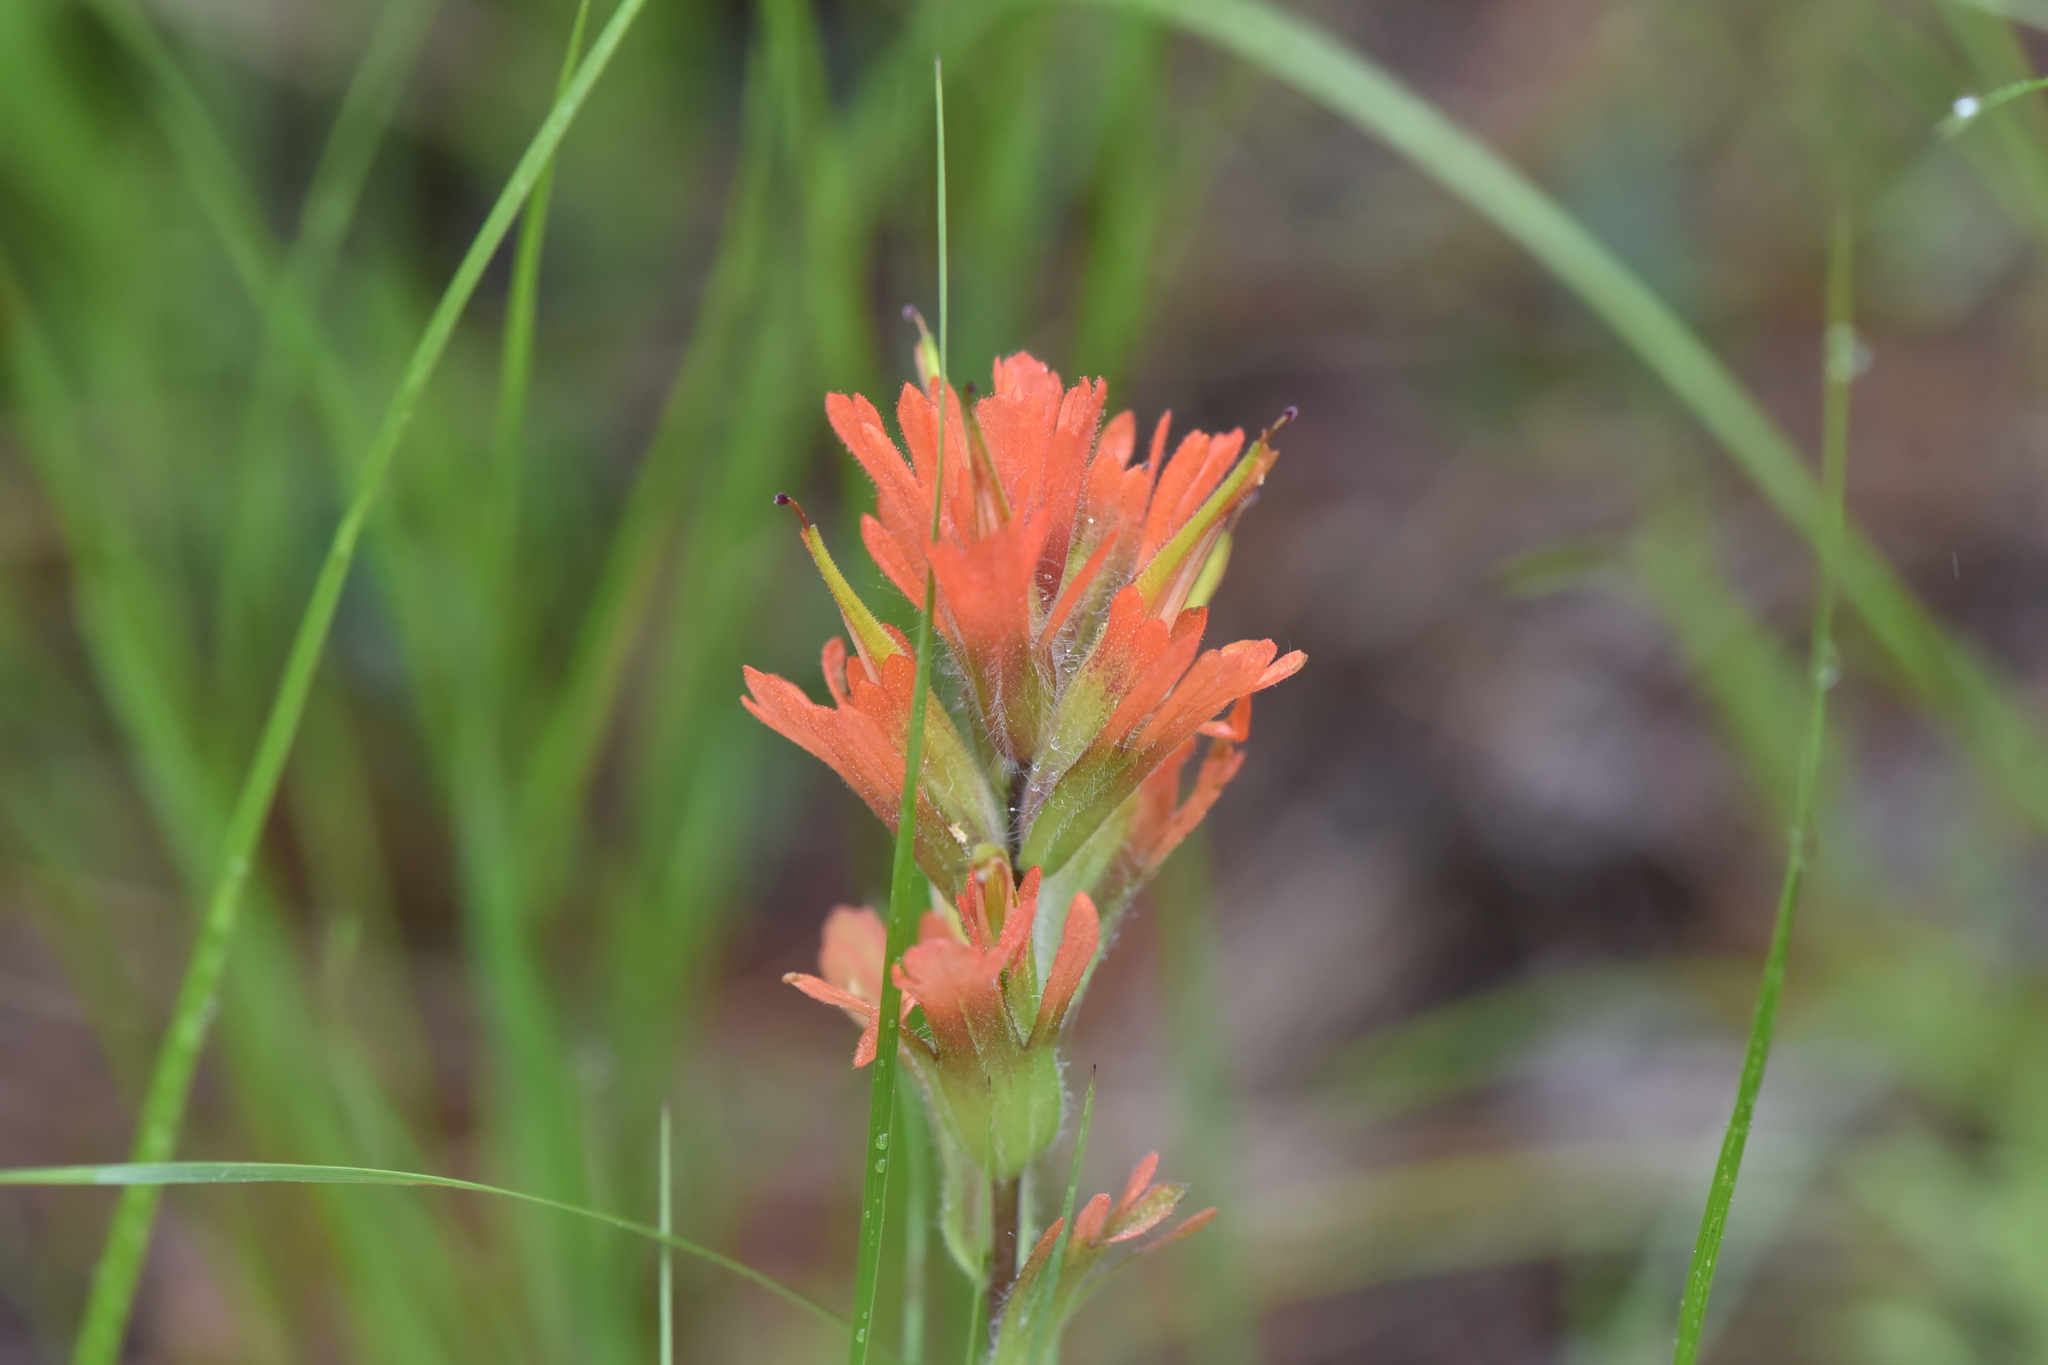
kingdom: Plantae
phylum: Tracheophyta
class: Magnoliopsida
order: Lamiales
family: Orobanchaceae
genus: Castilleja
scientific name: Castilleja hispida
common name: Bristly paintbrush
